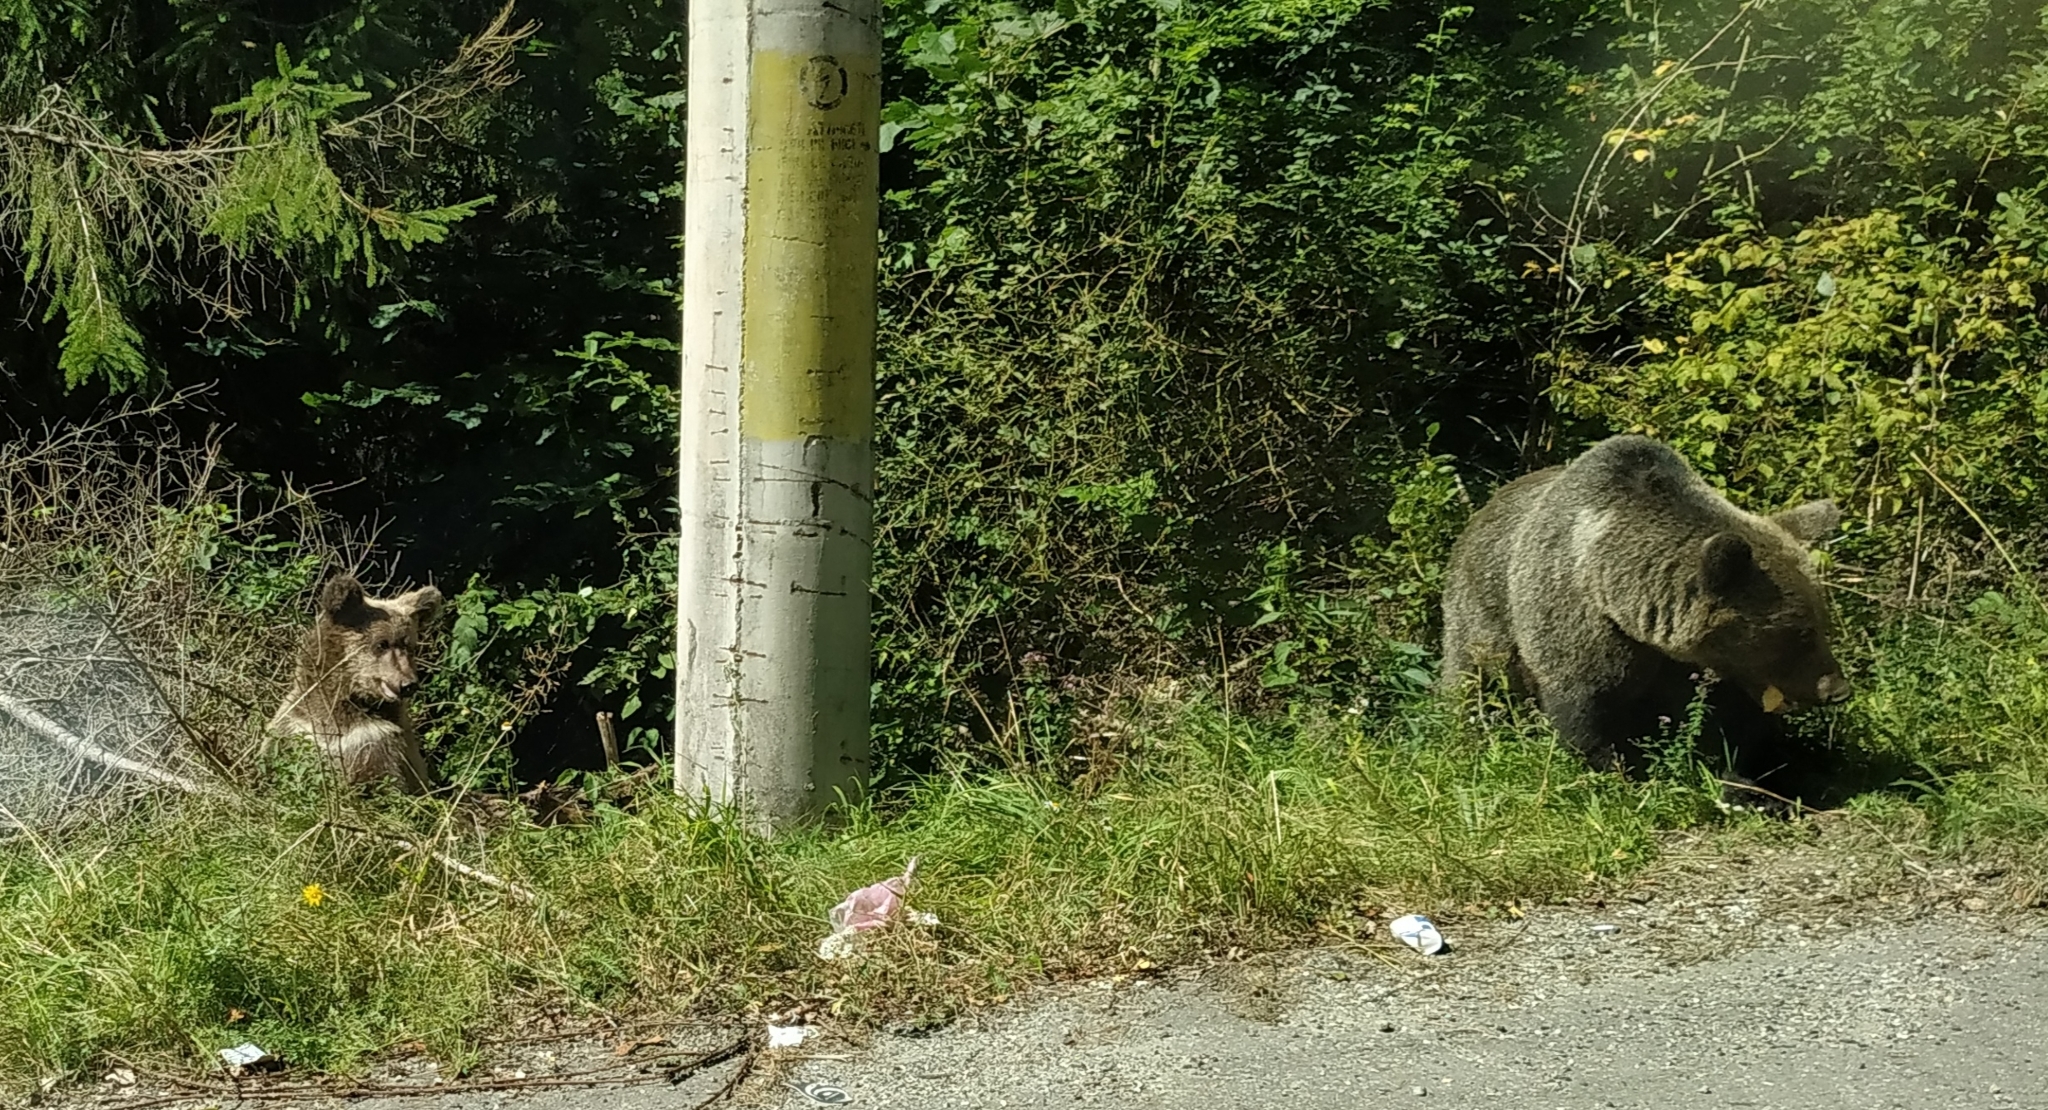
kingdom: Animalia
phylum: Chordata
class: Mammalia
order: Carnivora
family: Ursidae
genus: Ursus
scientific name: Ursus arctos
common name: Brown bear
